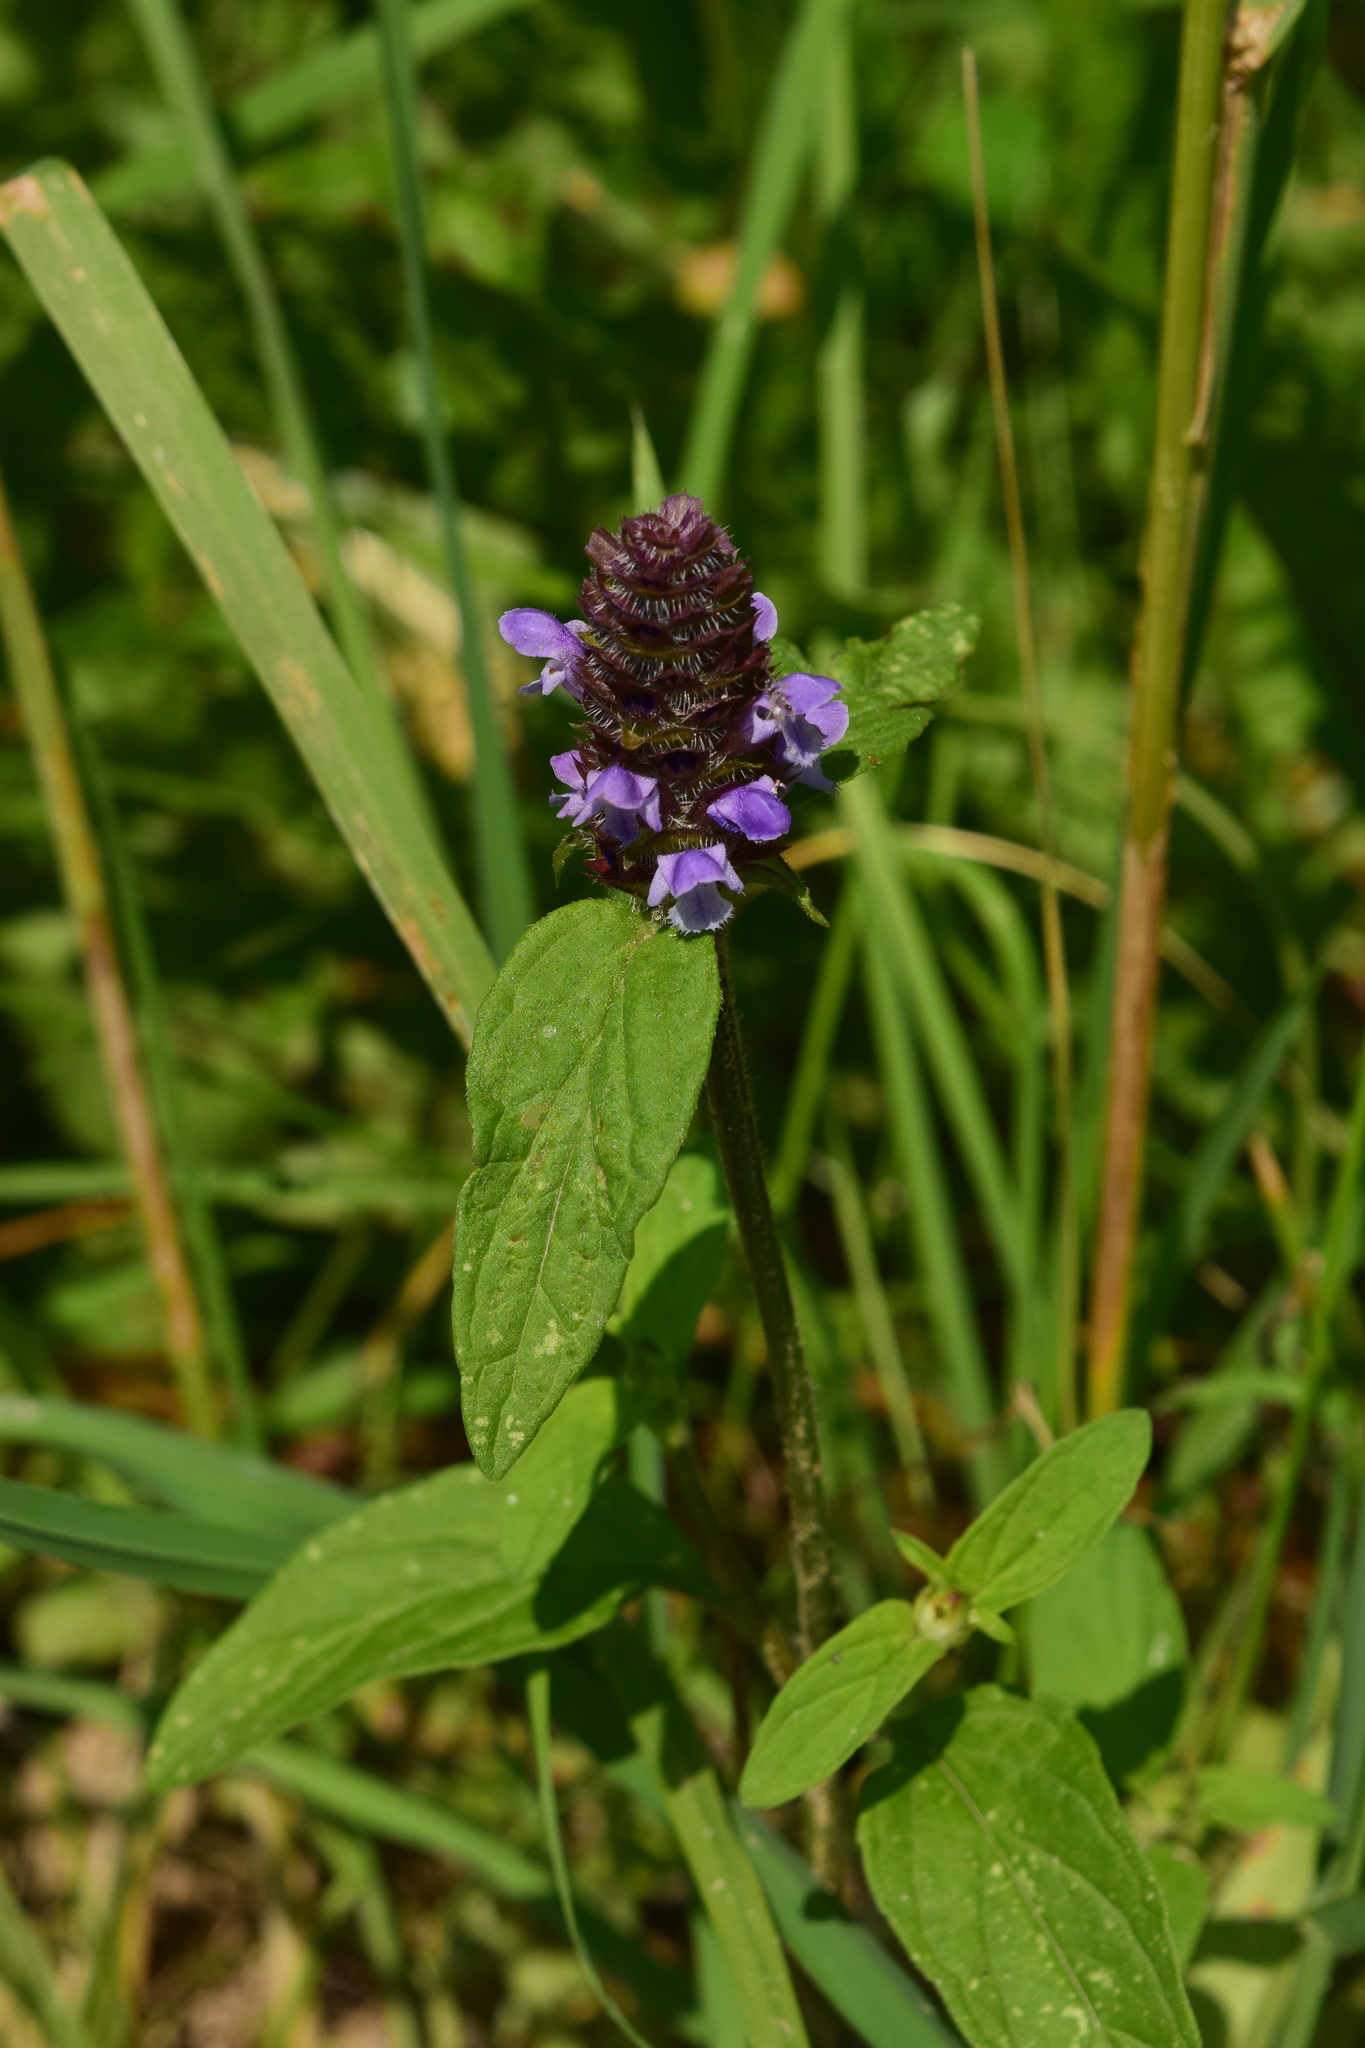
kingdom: Plantae
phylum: Tracheophyta
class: Magnoliopsida
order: Lamiales
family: Lamiaceae
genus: Prunella
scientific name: Prunella vulgaris
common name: Heal-all
